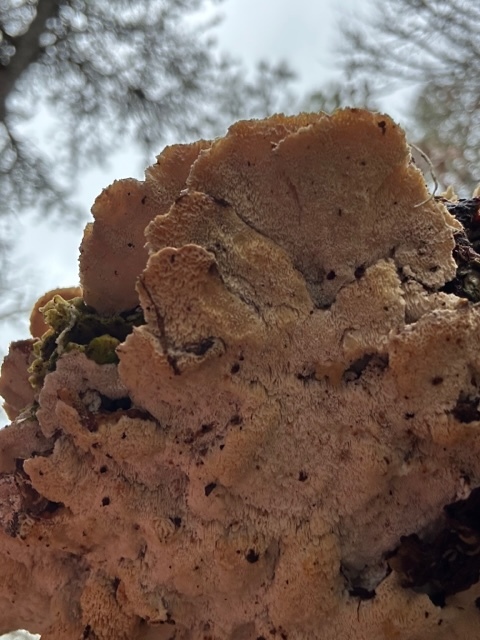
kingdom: Fungi
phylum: Basidiomycota
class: Agaricomycetes
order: Polyporales
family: Polyporaceae
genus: Trametes
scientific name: Trametes versicolor
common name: Turkeytail
